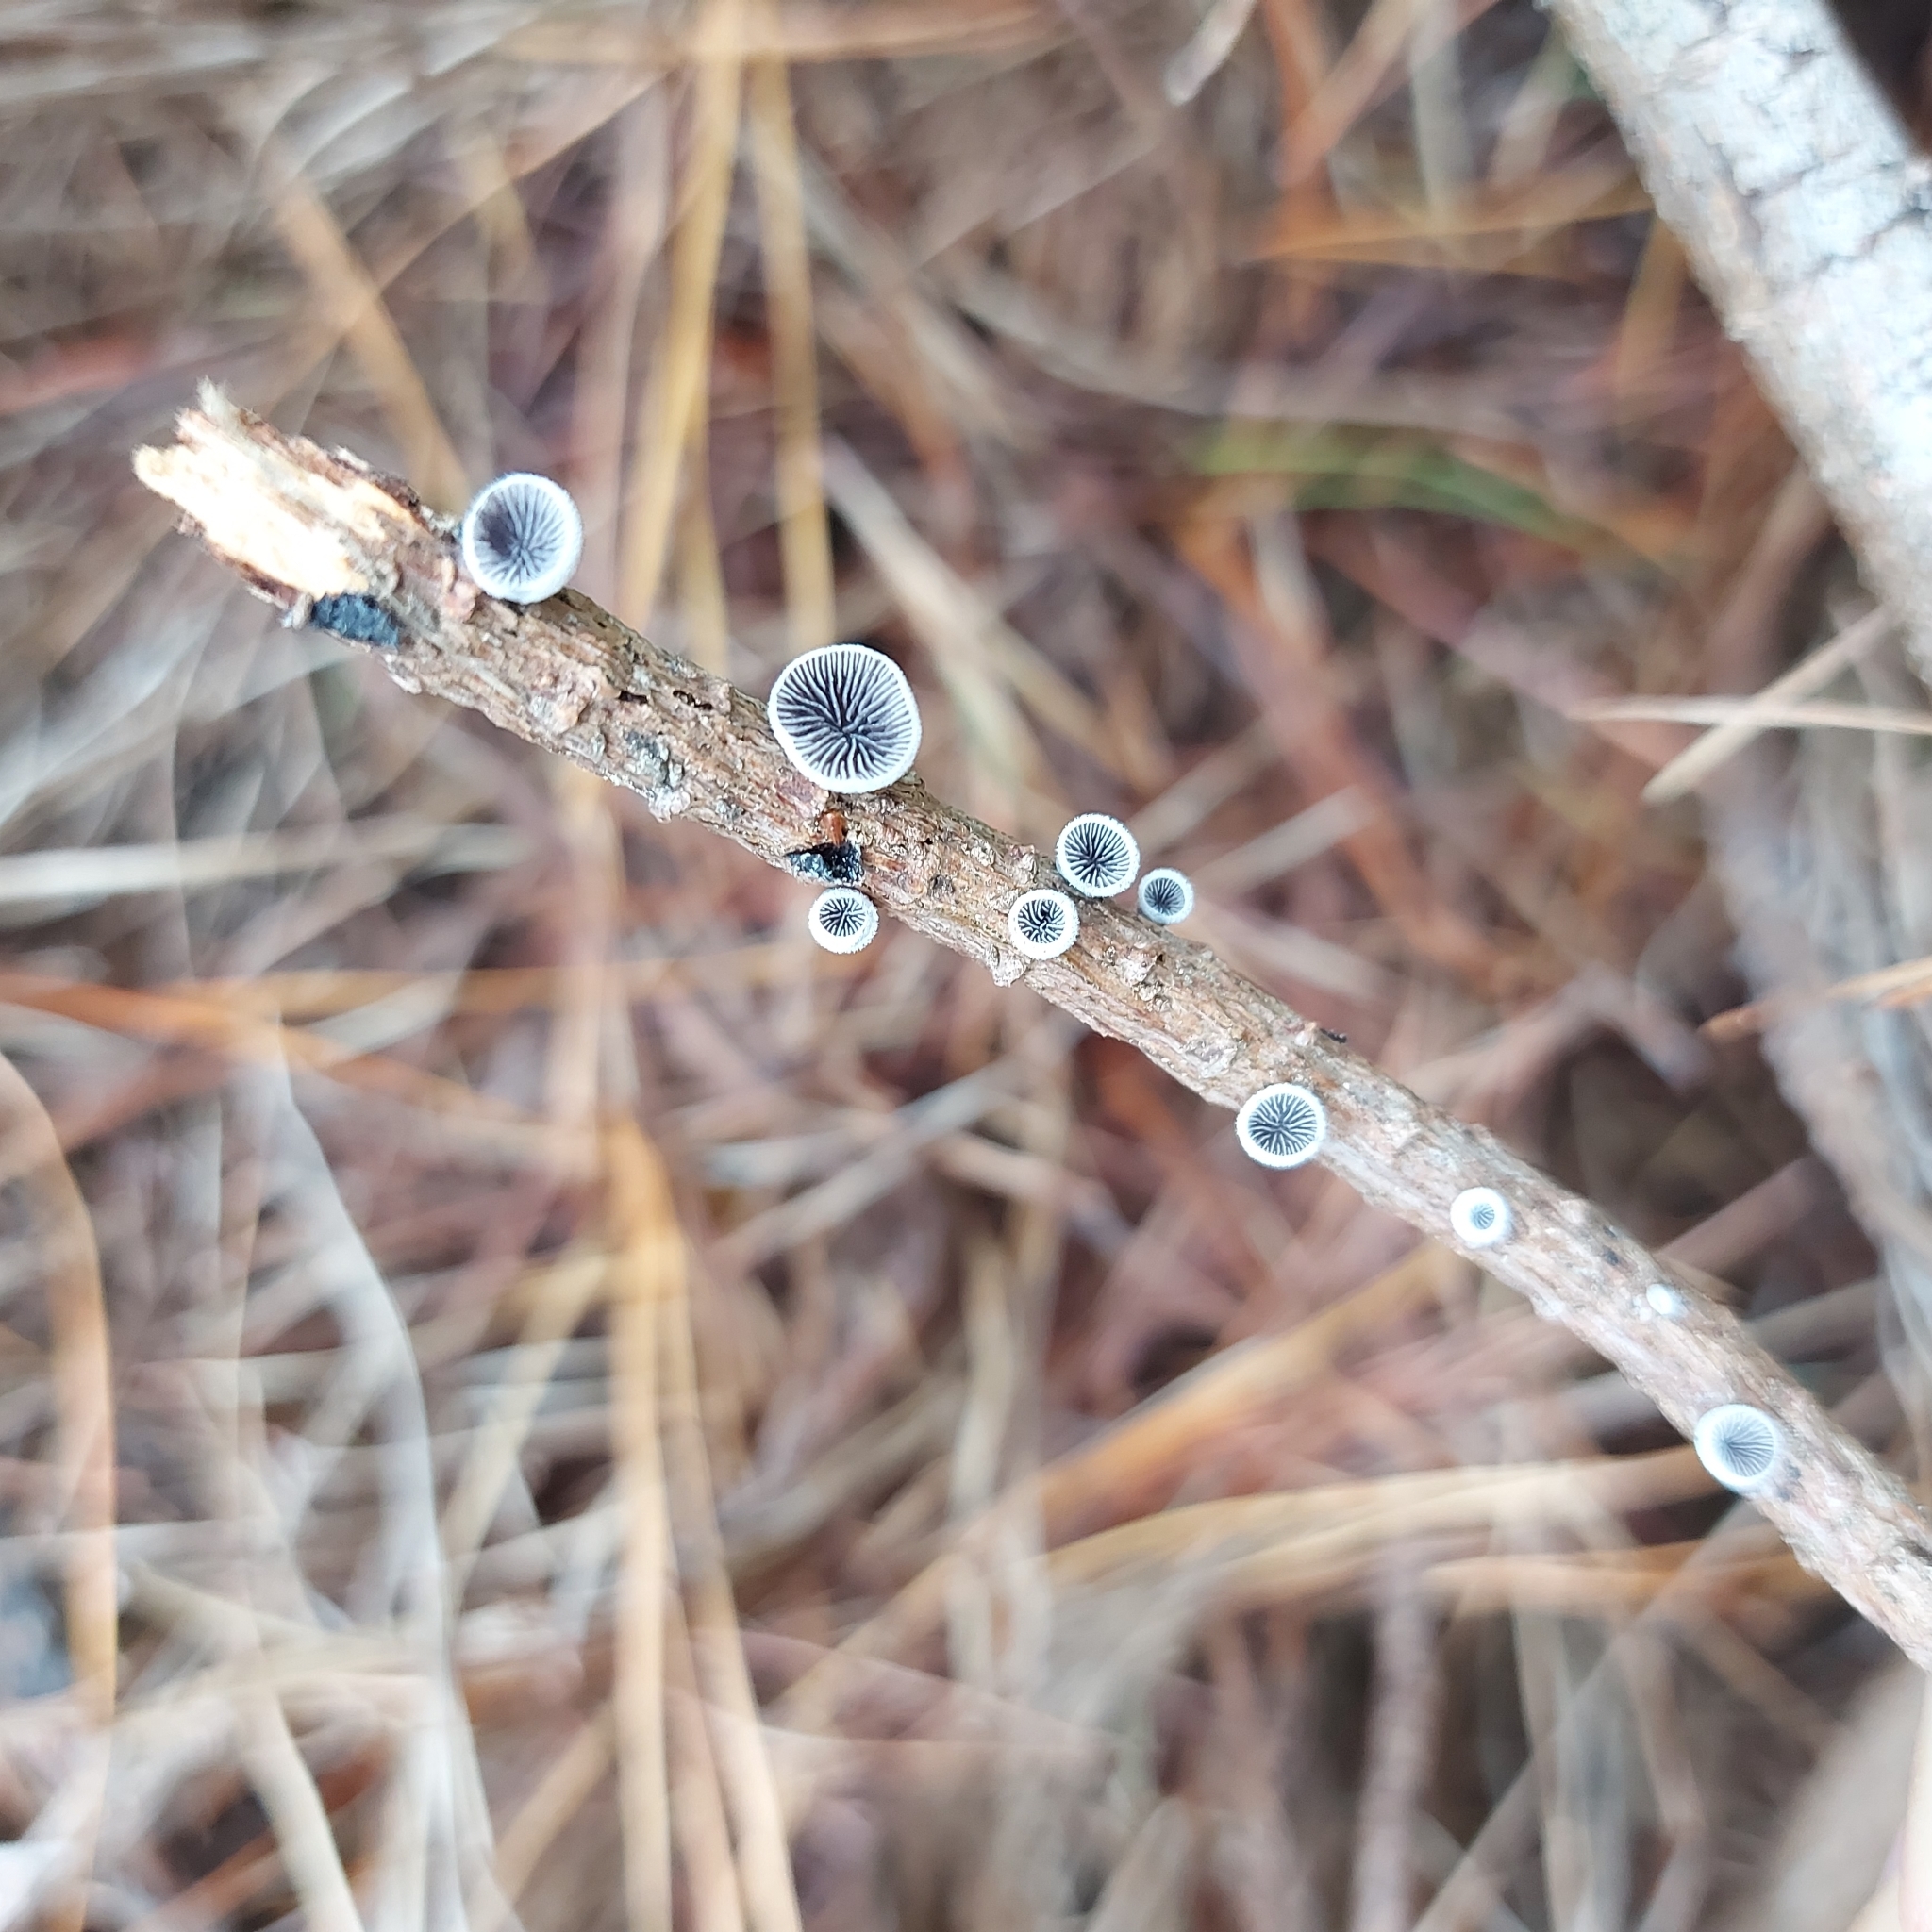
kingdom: Fungi
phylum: Basidiomycota
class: Agaricomycetes
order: Agaricales
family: Pleurotaceae
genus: Resupinatus
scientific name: Resupinatus vinosolividus
